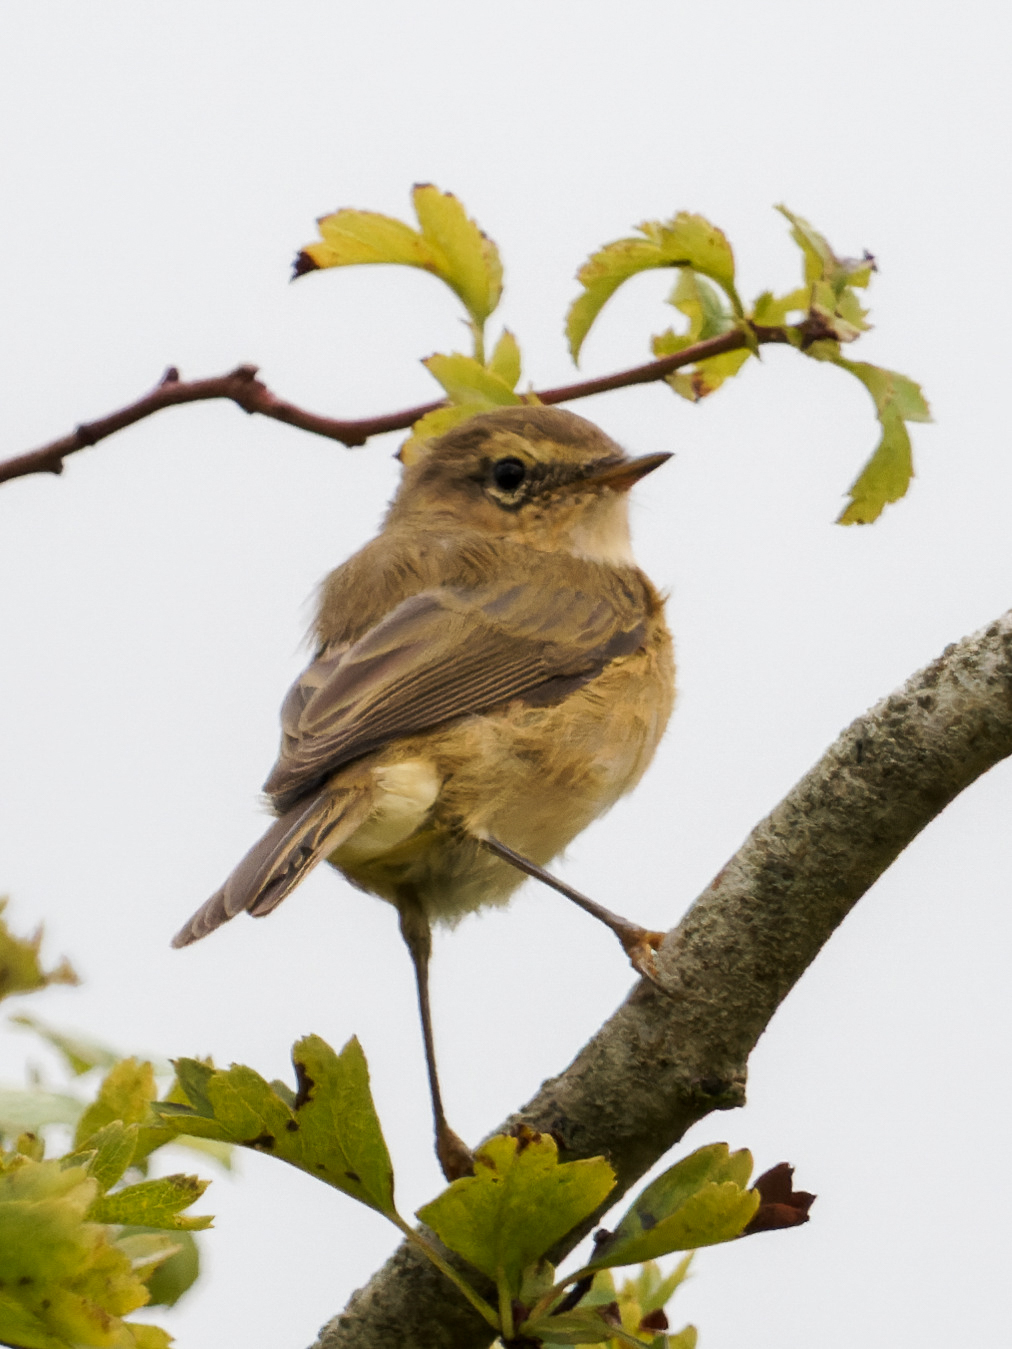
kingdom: Animalia
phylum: Chordata
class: Aves
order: Passeriformes
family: Phylloscopidae
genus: Phylloscopus
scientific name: Phylloscopus collybita
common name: Common chiffchaff
